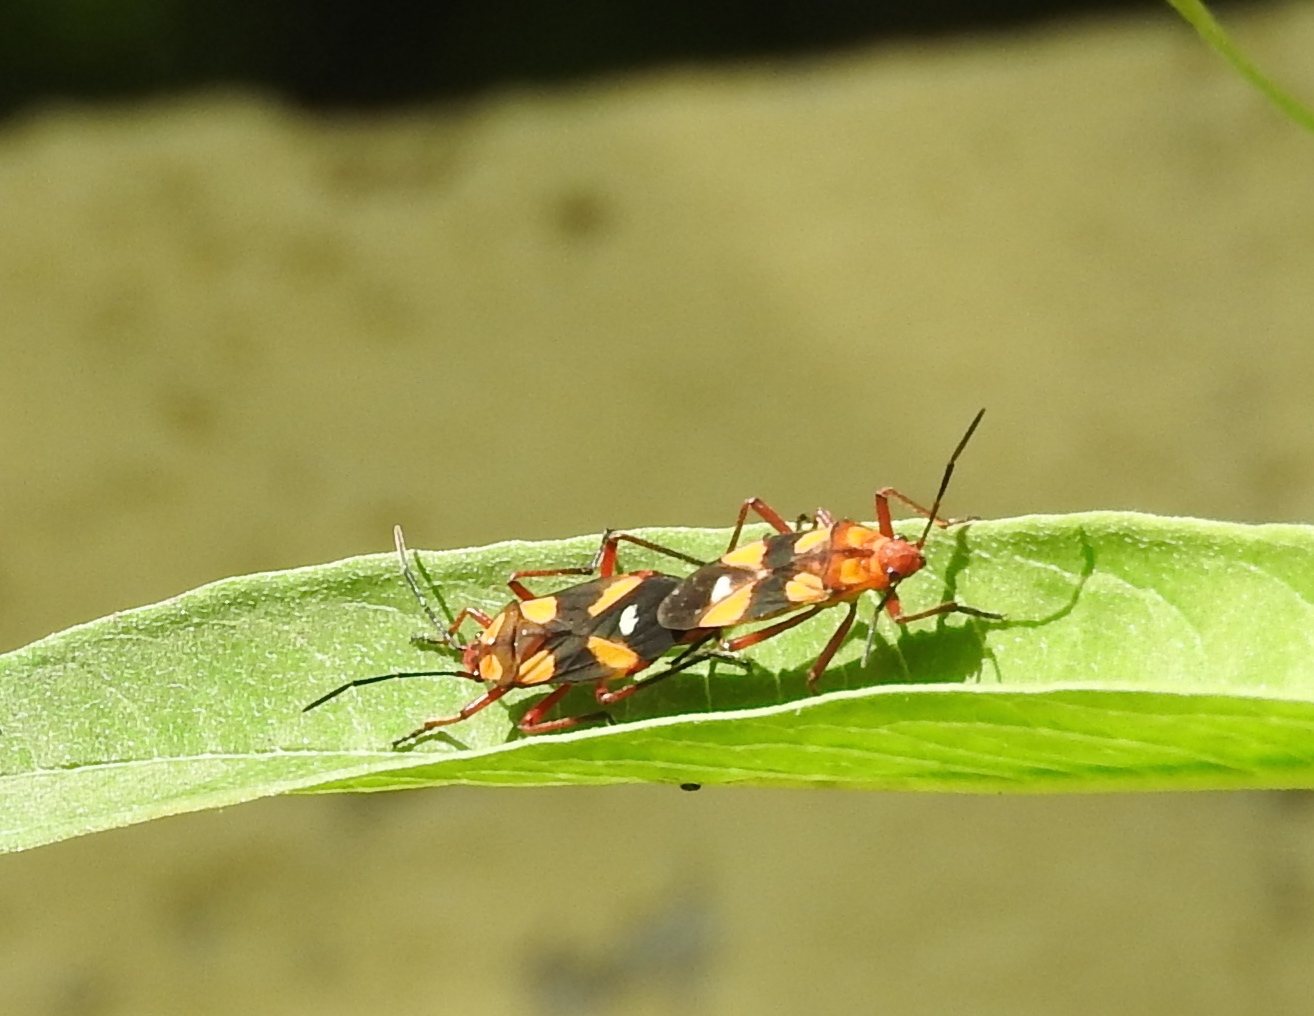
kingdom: Animalia
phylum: Arthropoda
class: Insecta
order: Hemiptera
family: Lygaeidae
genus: Oncopeltus
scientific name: Oncopeltus guttaloides
